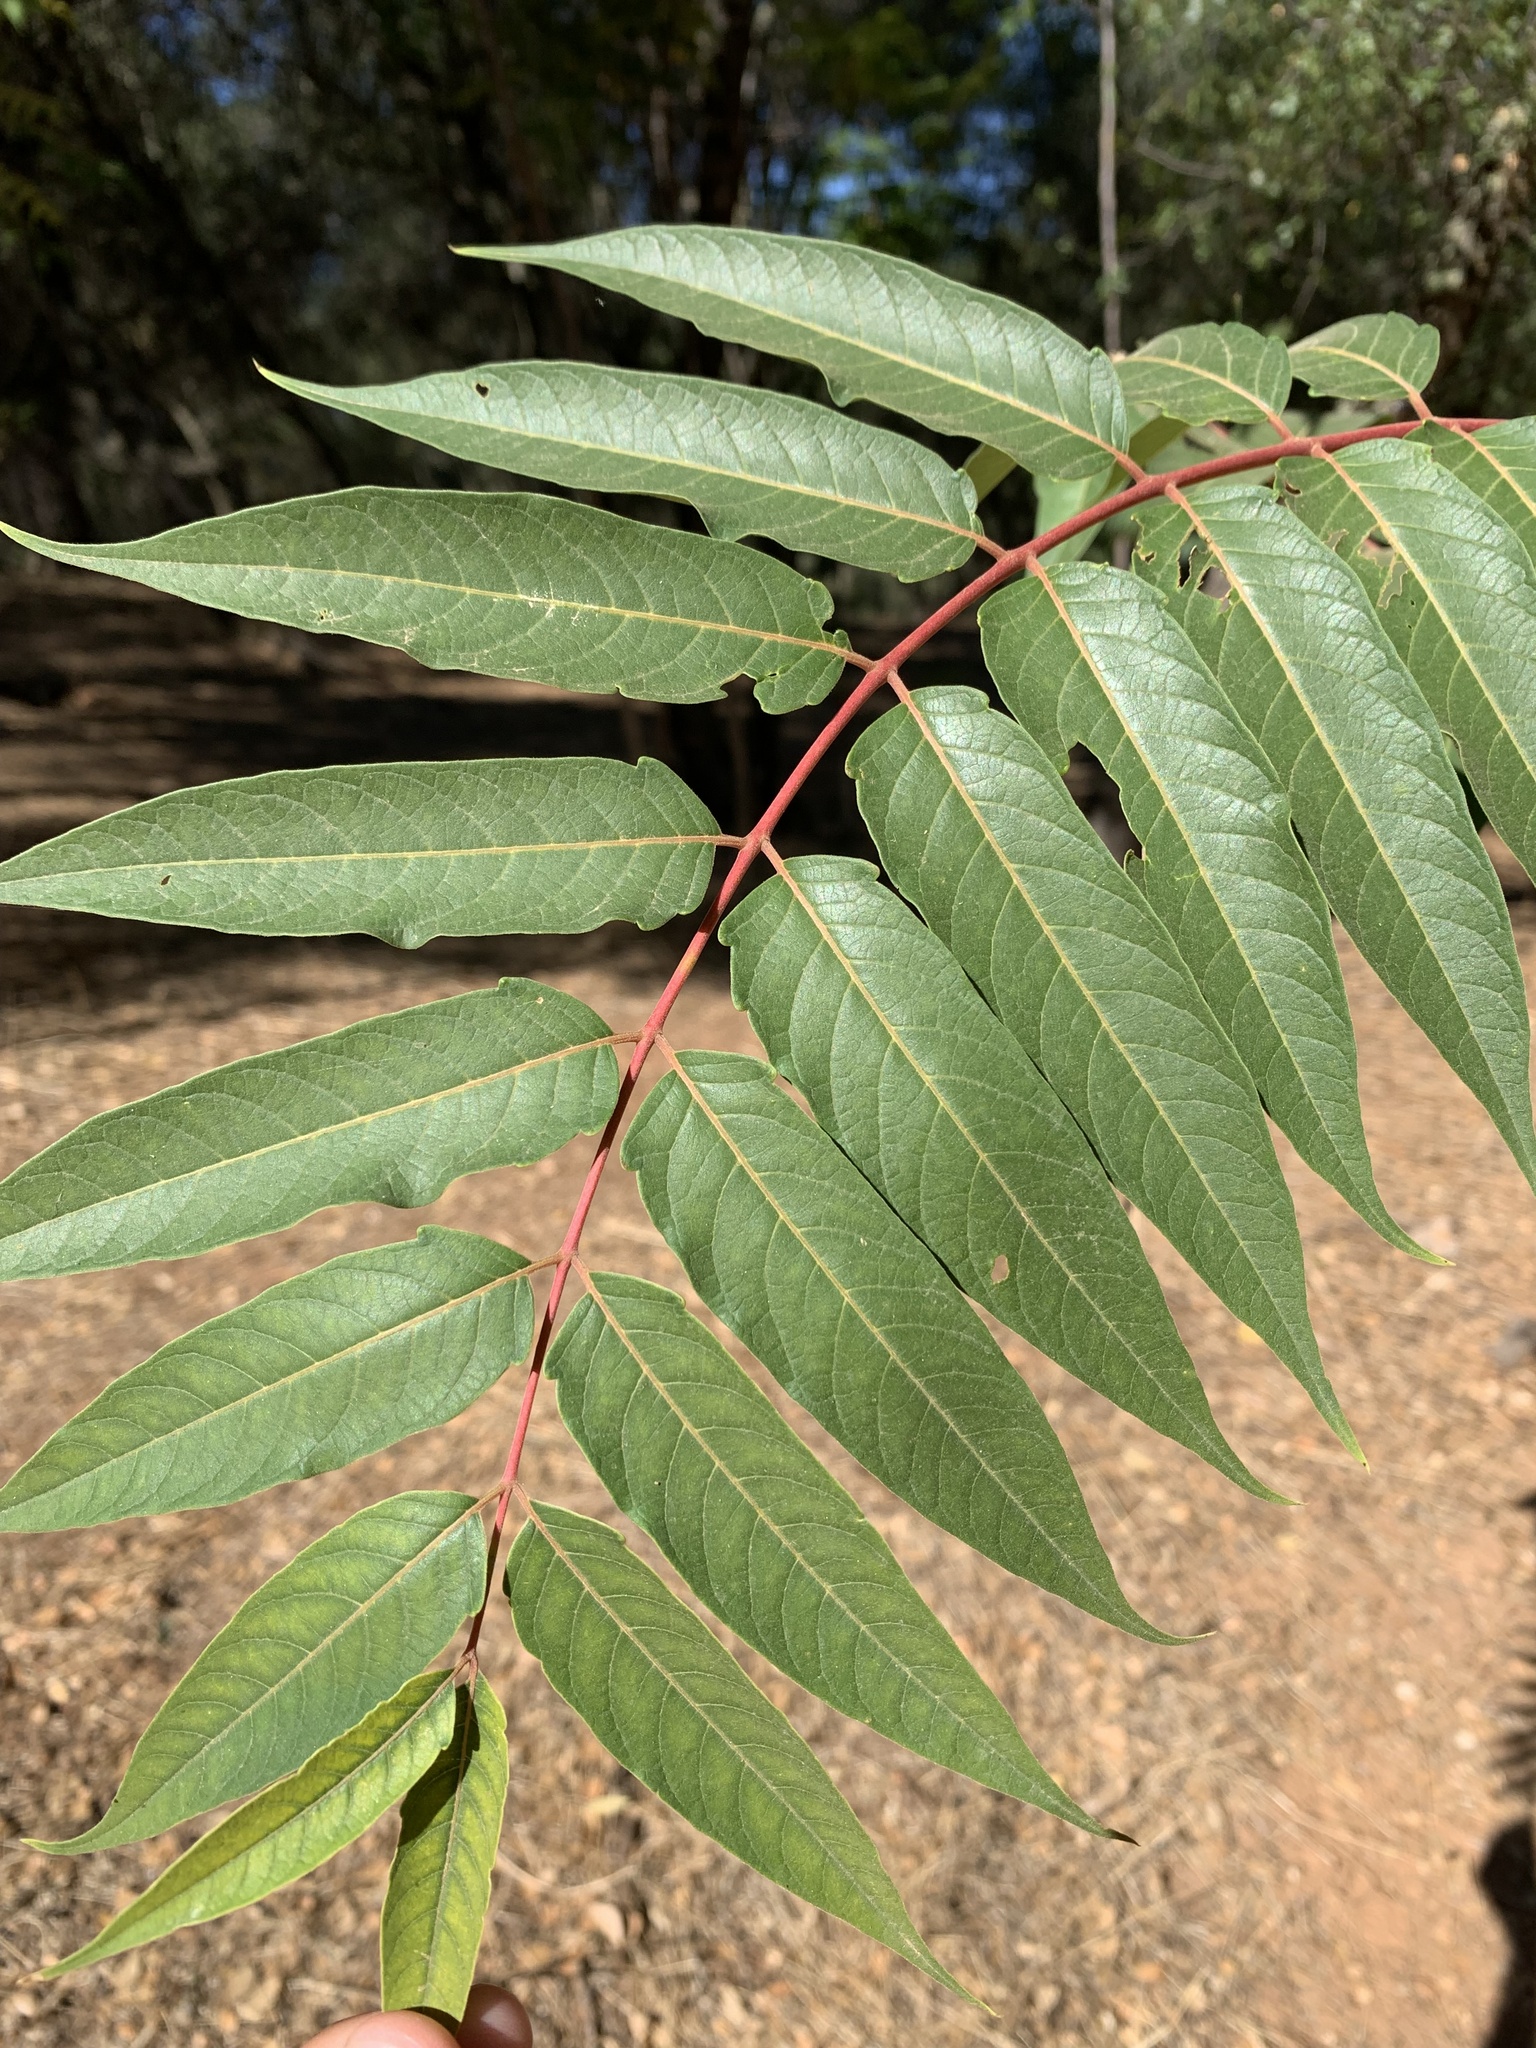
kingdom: Plantae
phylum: Tracheophyta
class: Magnoliopsida
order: Sapindales
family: Simaroubaceae
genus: Ailanthus
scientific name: Ailanthus altissima
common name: Tree-of-heaven
